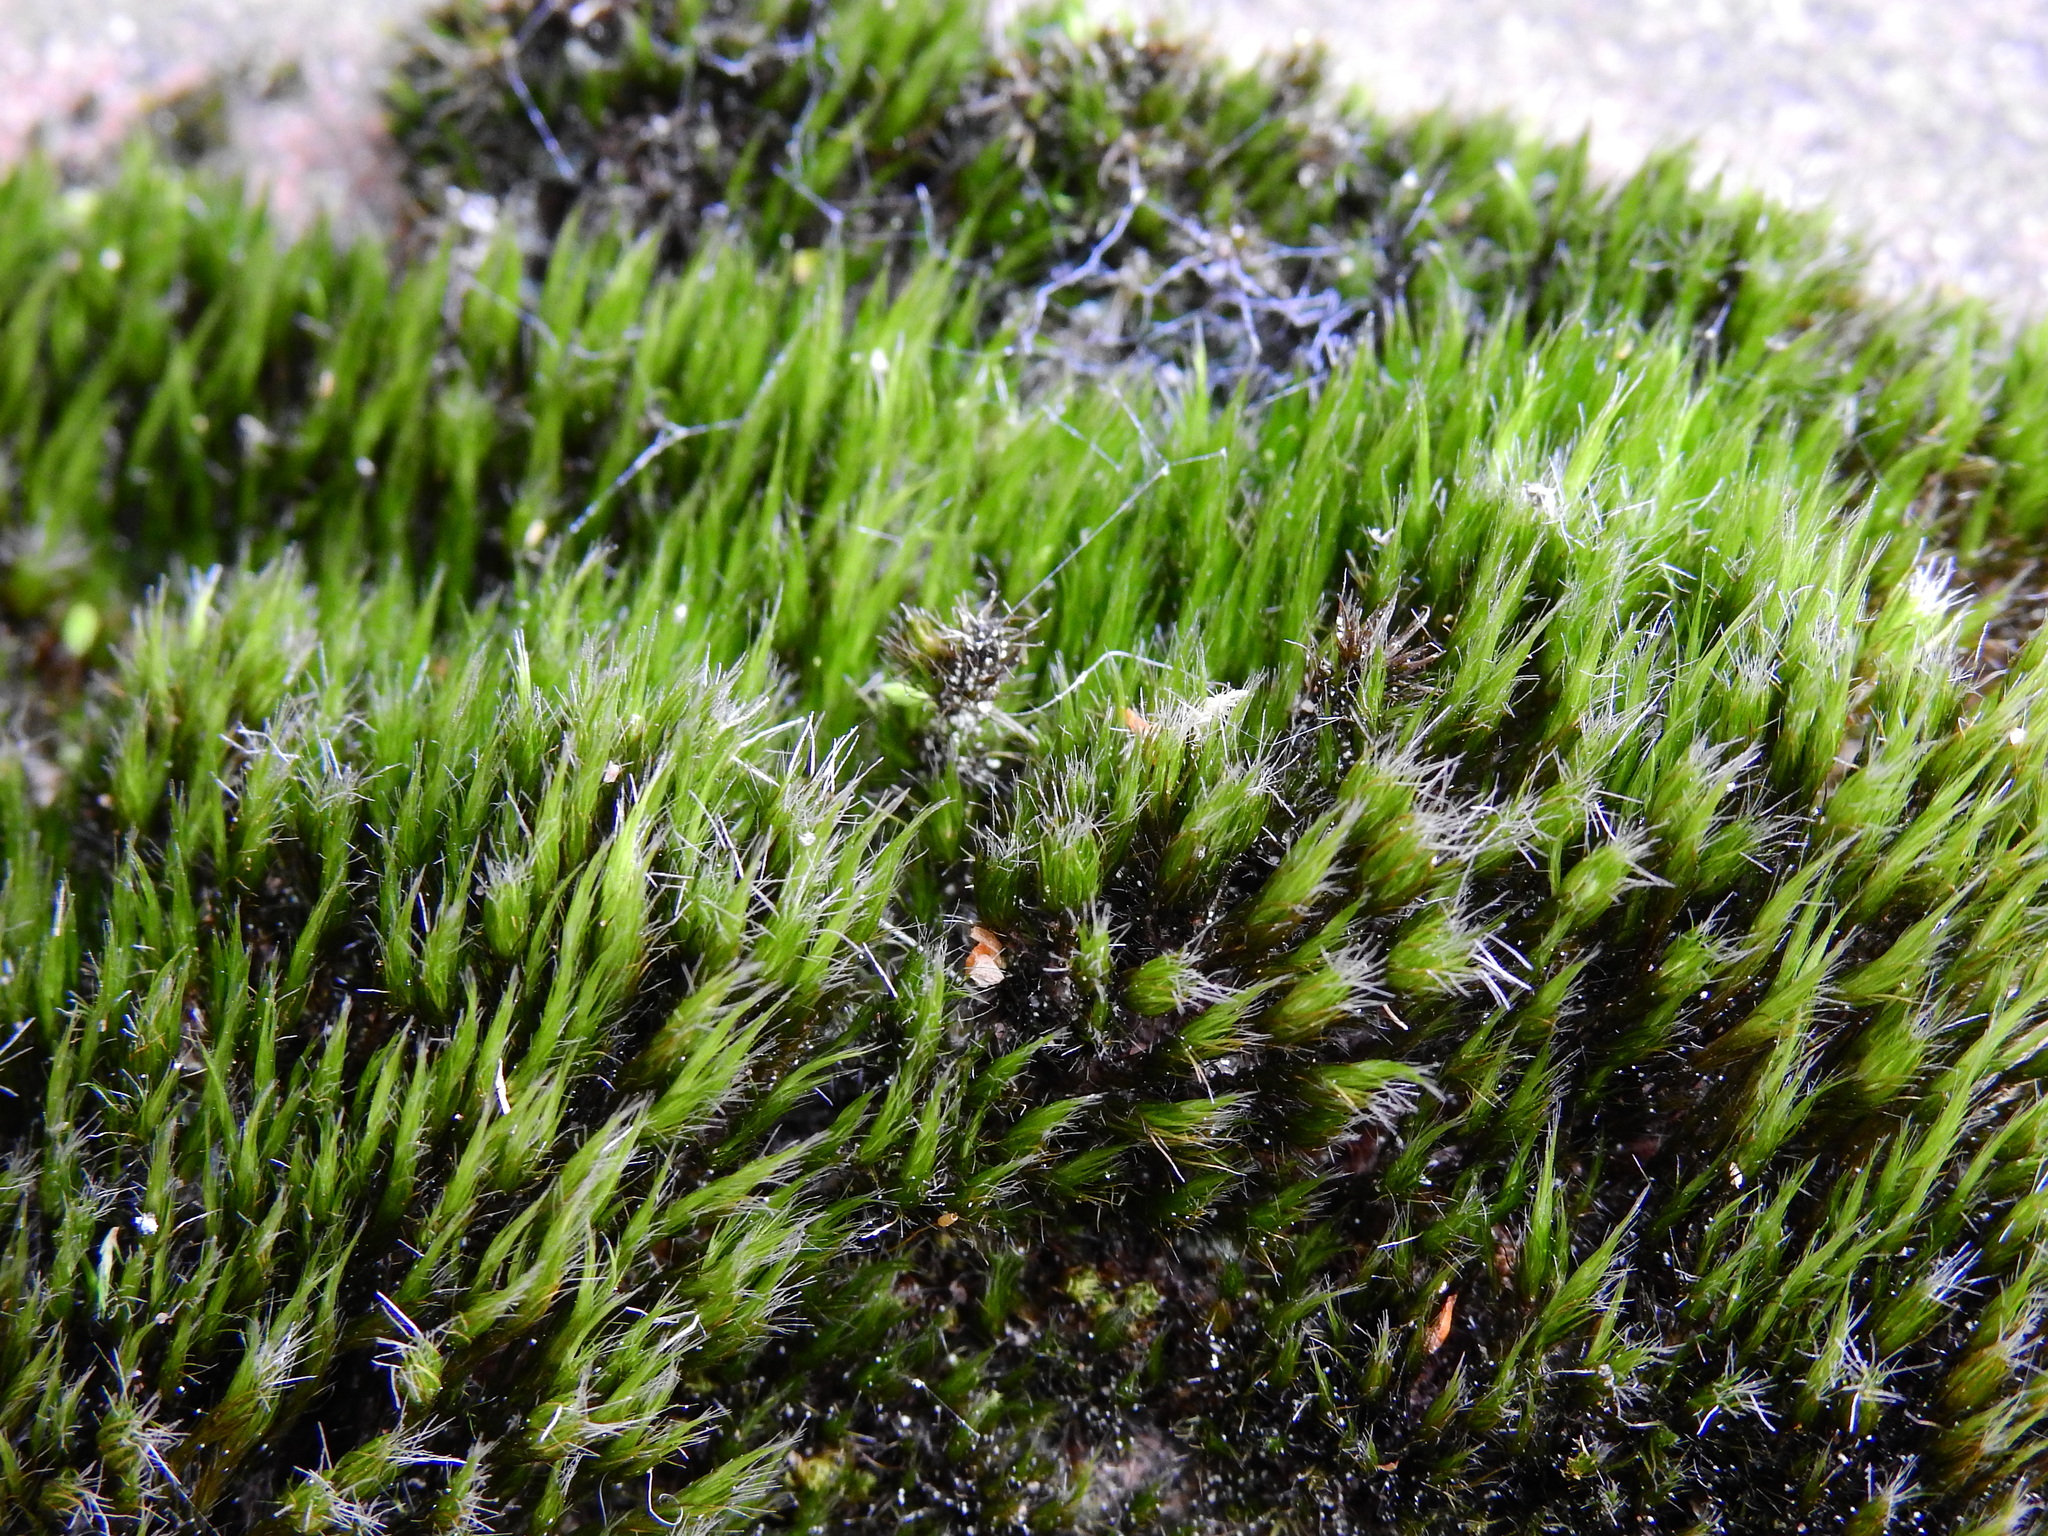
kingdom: Plantae
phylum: Bryophyta
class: Bryopsida
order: Dicranales
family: Leucobryaceae
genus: Campylopus
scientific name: Campylopus introflexus
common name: Heath star moss
